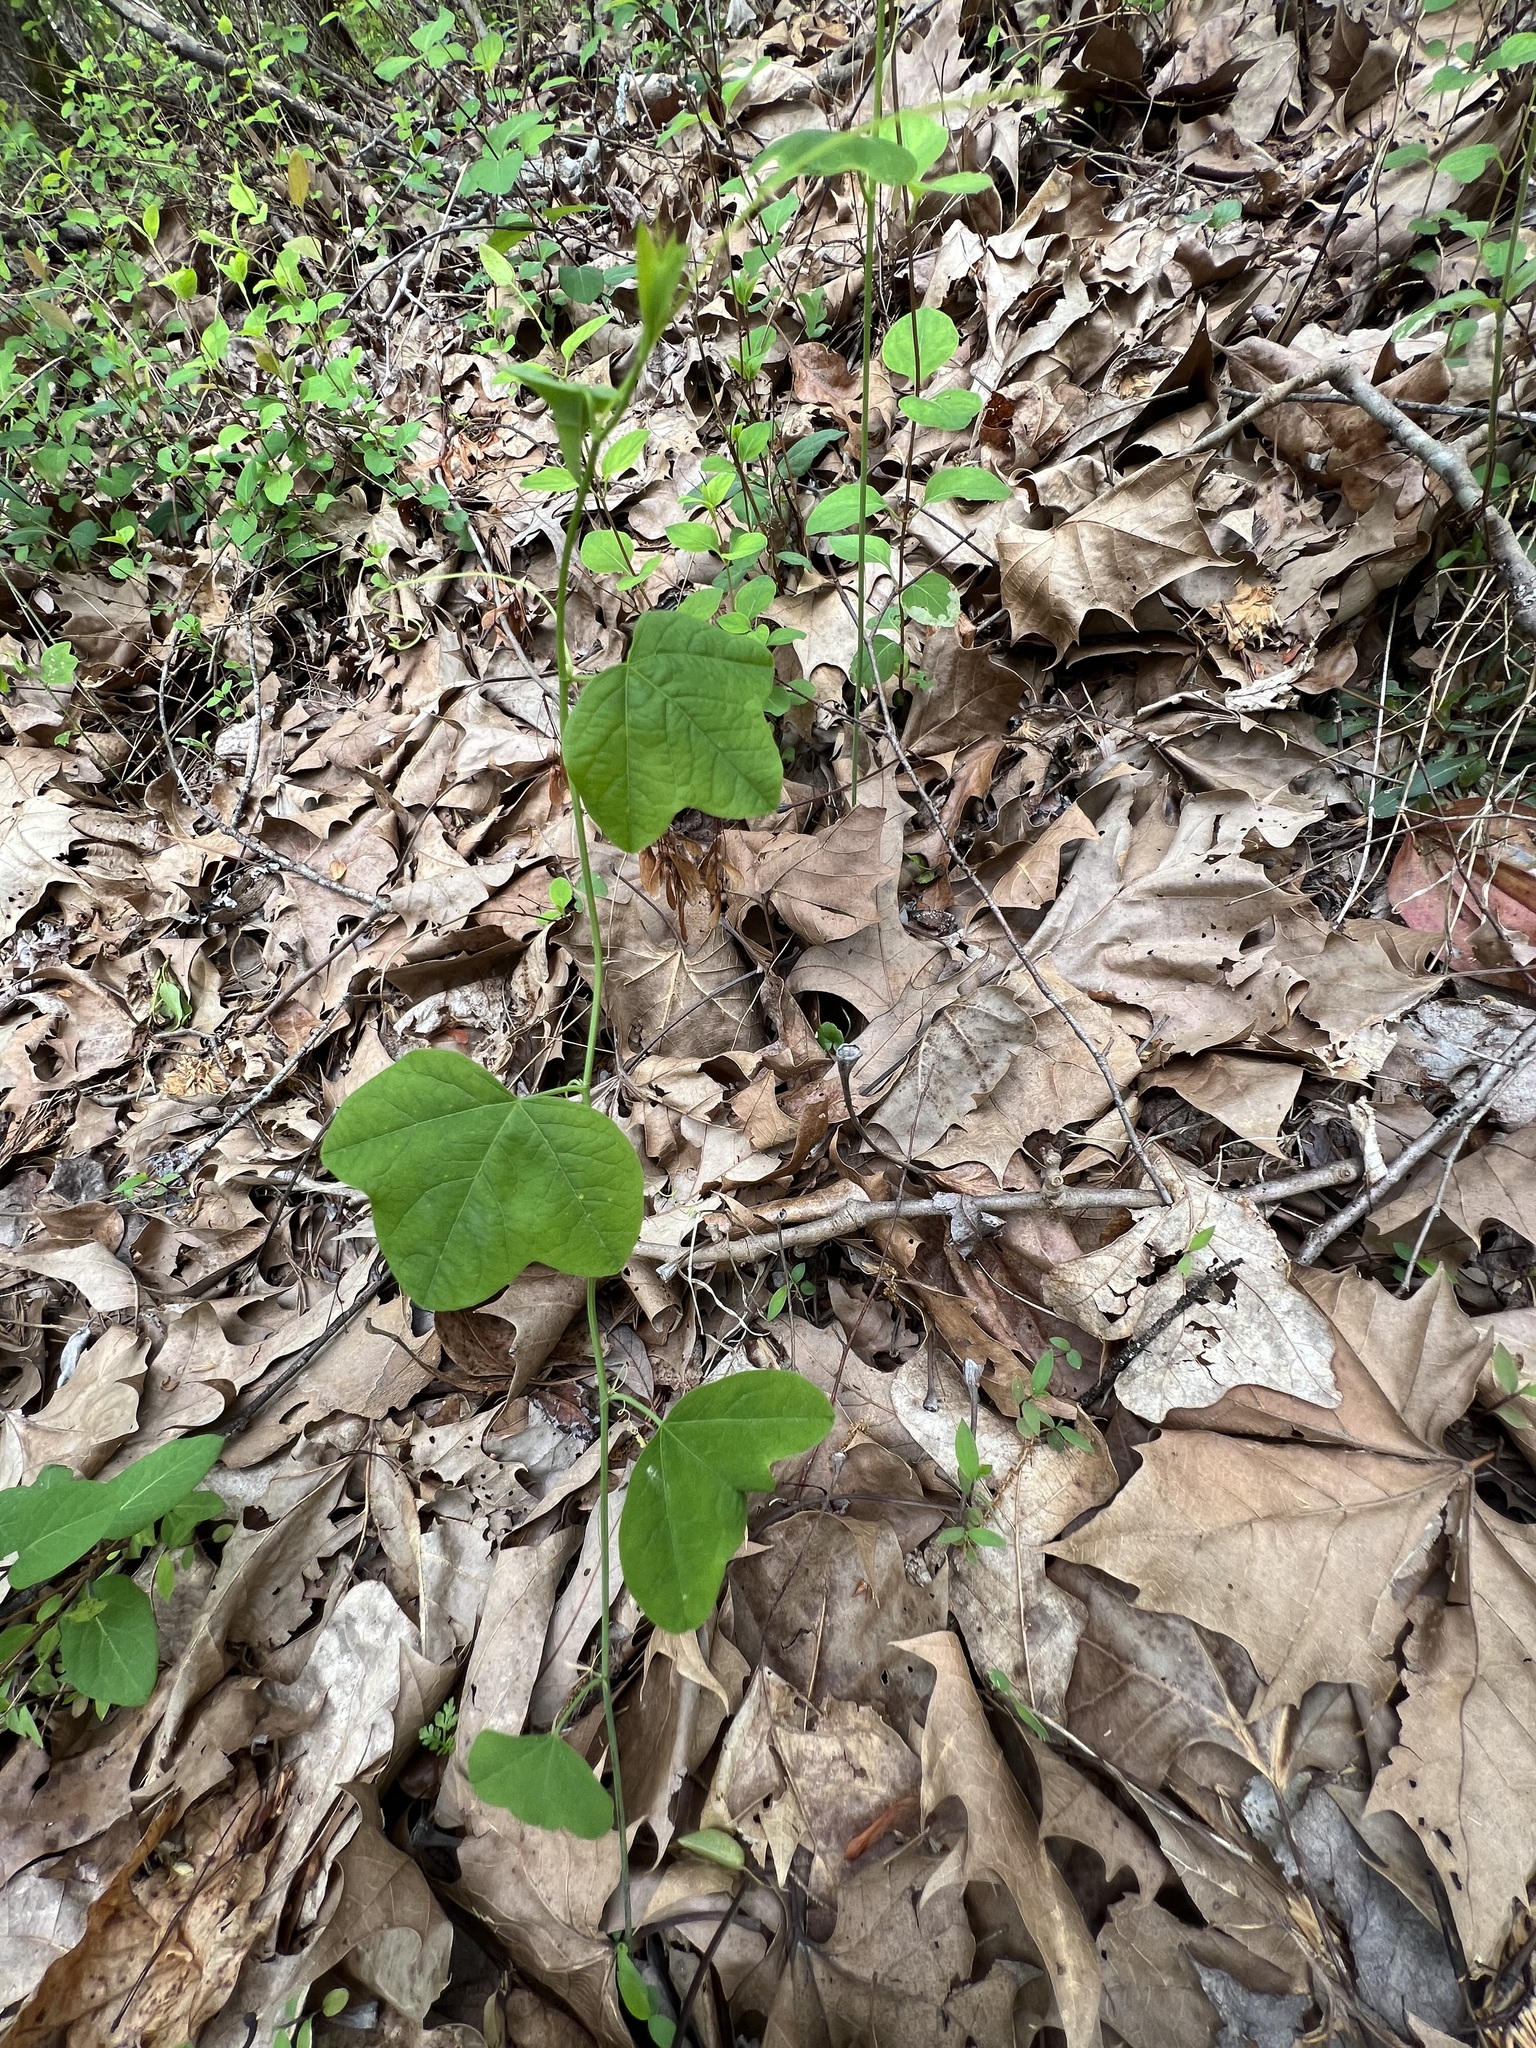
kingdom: Plantae
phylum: Tracheophyta
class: Magnoliopsida
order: Malpighiales
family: Passifloraceae
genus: Passiflora
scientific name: Passiflora lutea
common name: Yellow passionflower
